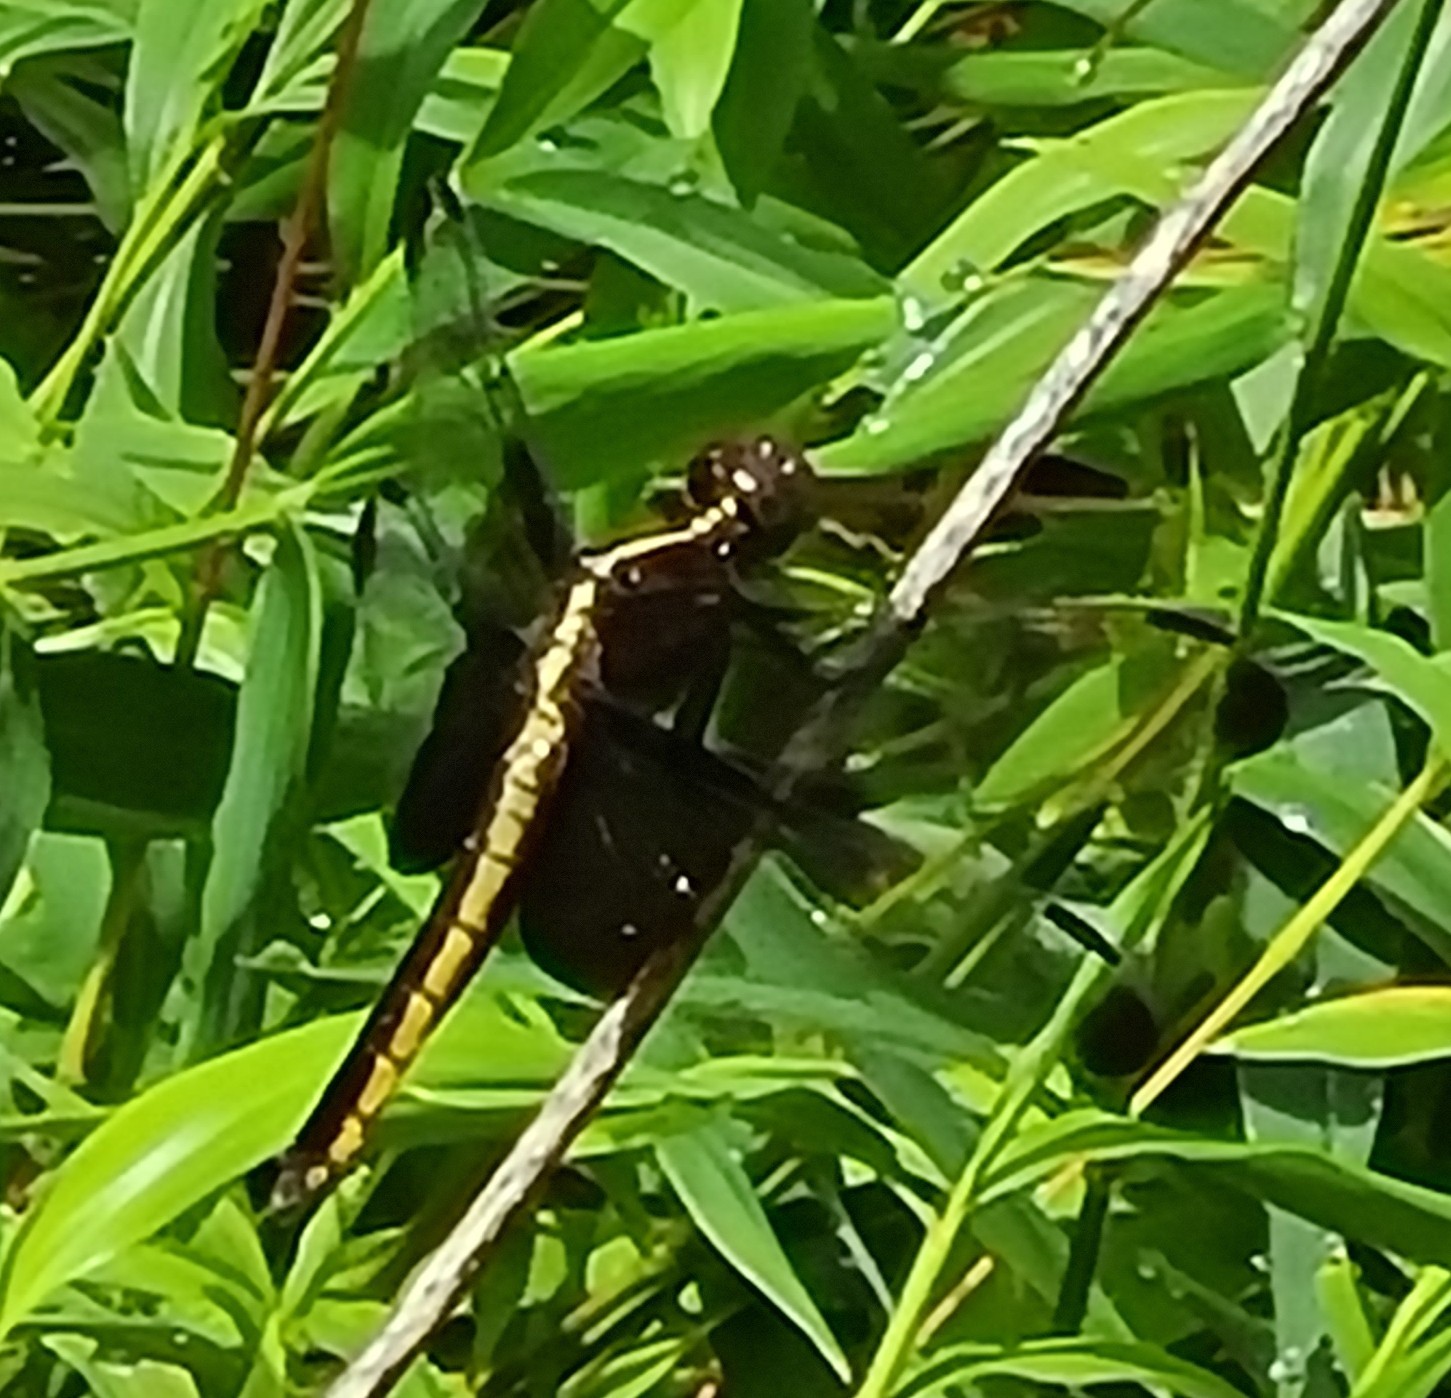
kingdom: Animalia
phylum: Arthropoda
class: Insecta
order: Odonata
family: Libellulidae
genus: Libellula
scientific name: Libellula luctuosa
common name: Widow skimmer
